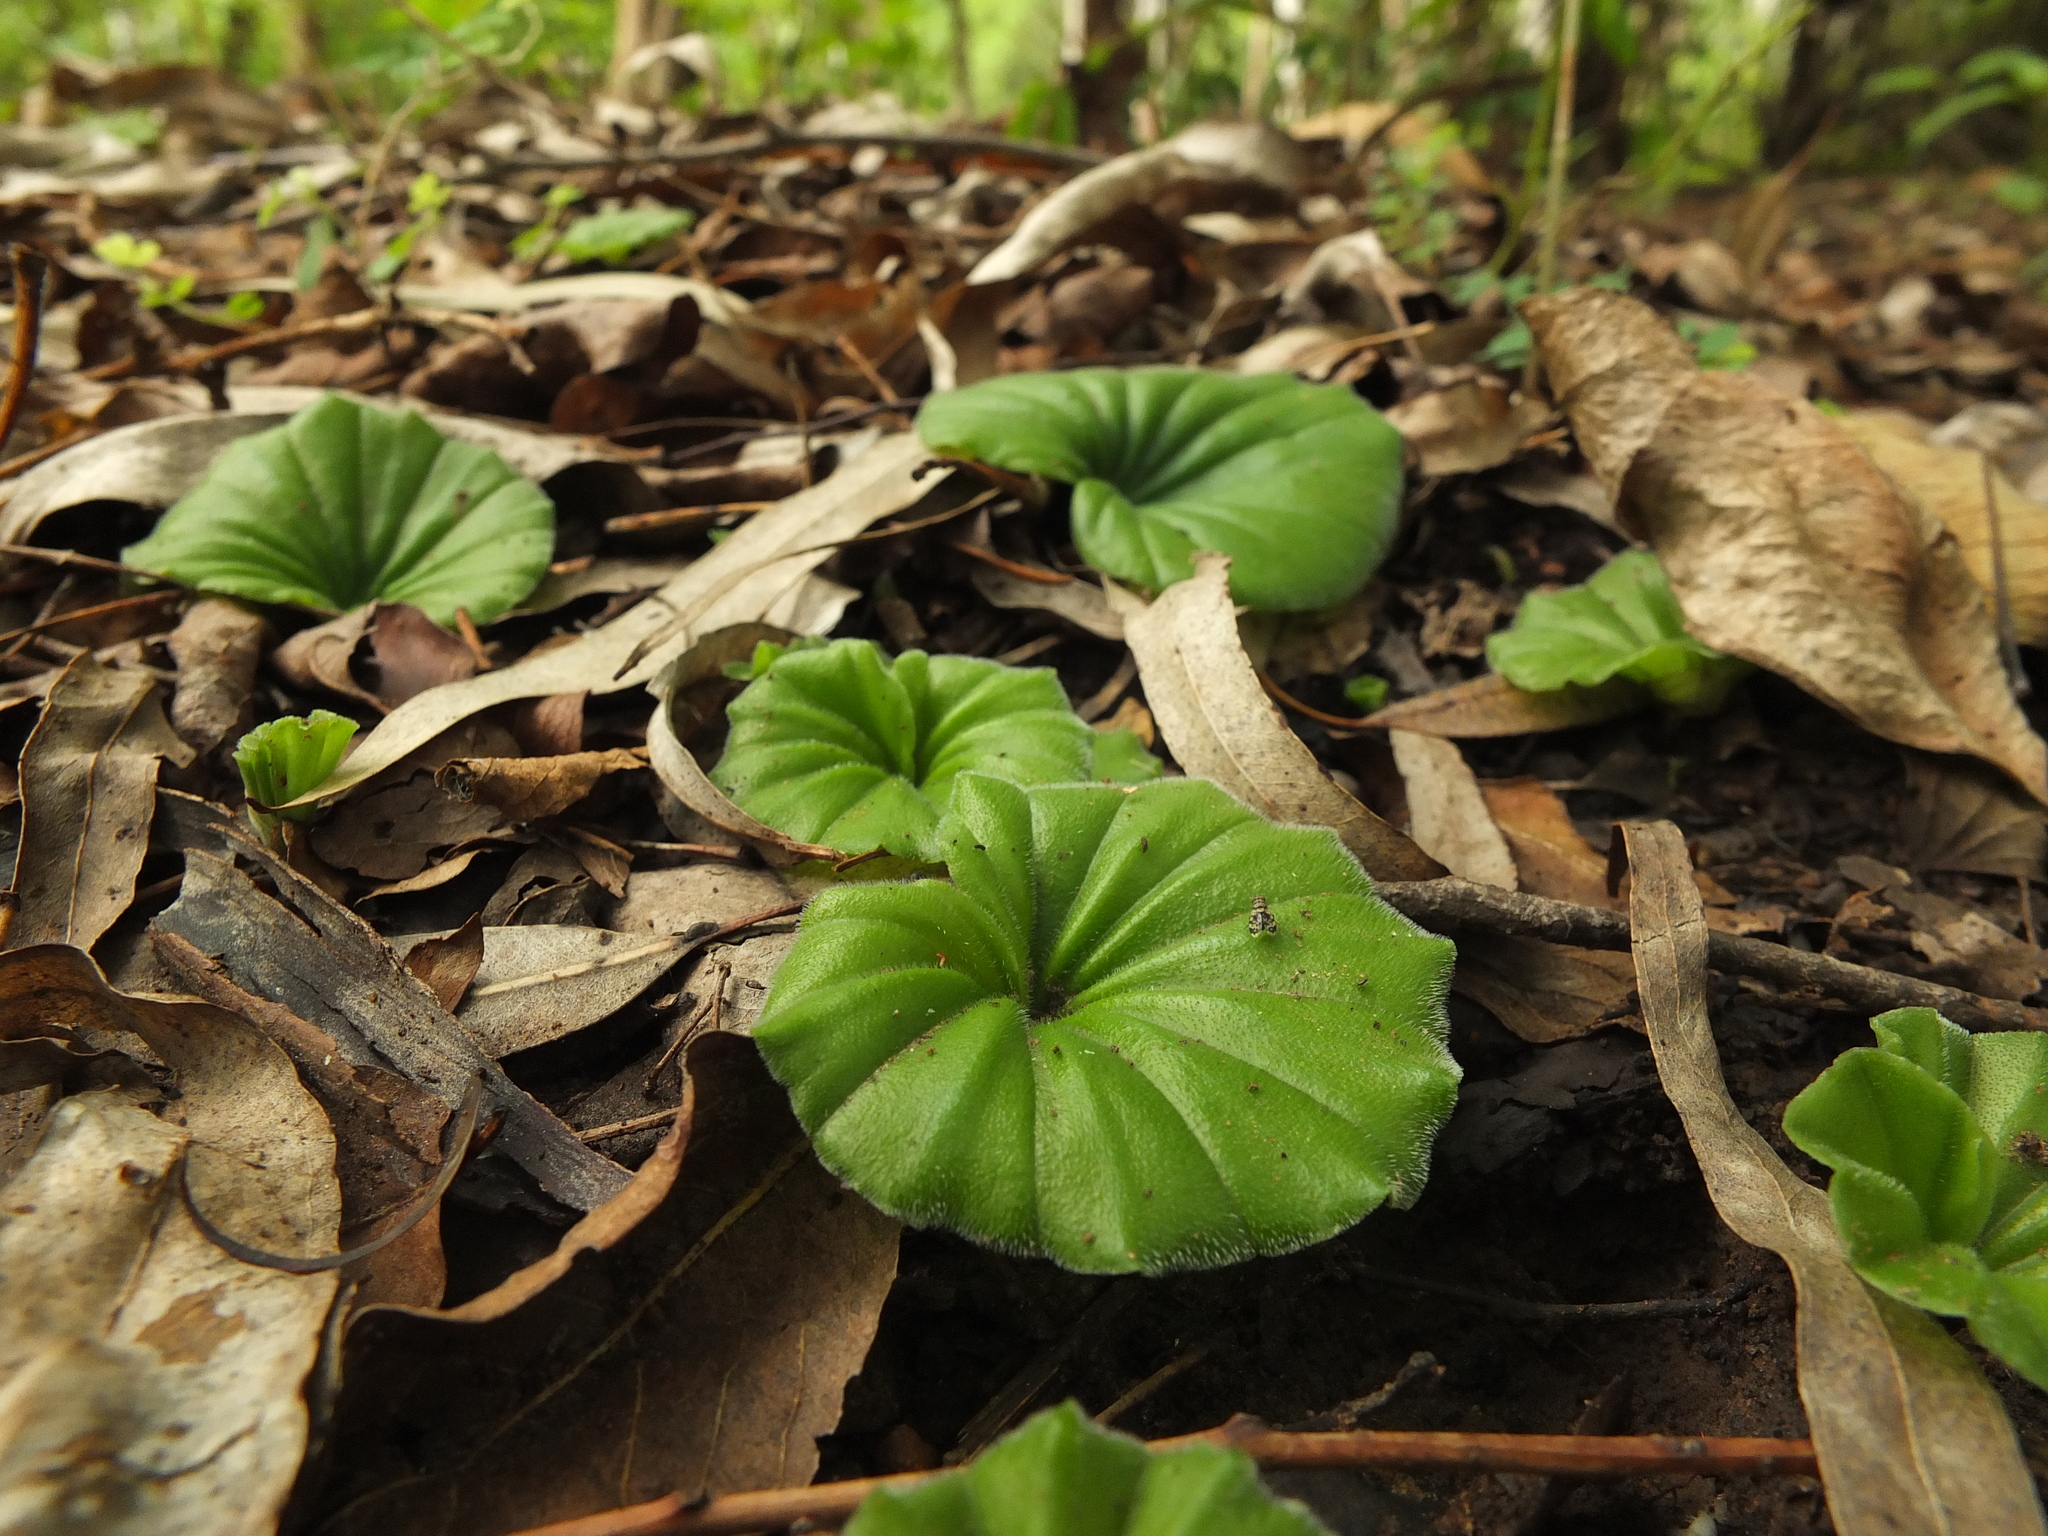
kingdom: Plantae
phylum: Tracheophyta
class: Liliopsida
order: Asparagales
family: Orchidaceae
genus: Nervilia
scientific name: Nervilia simplex
